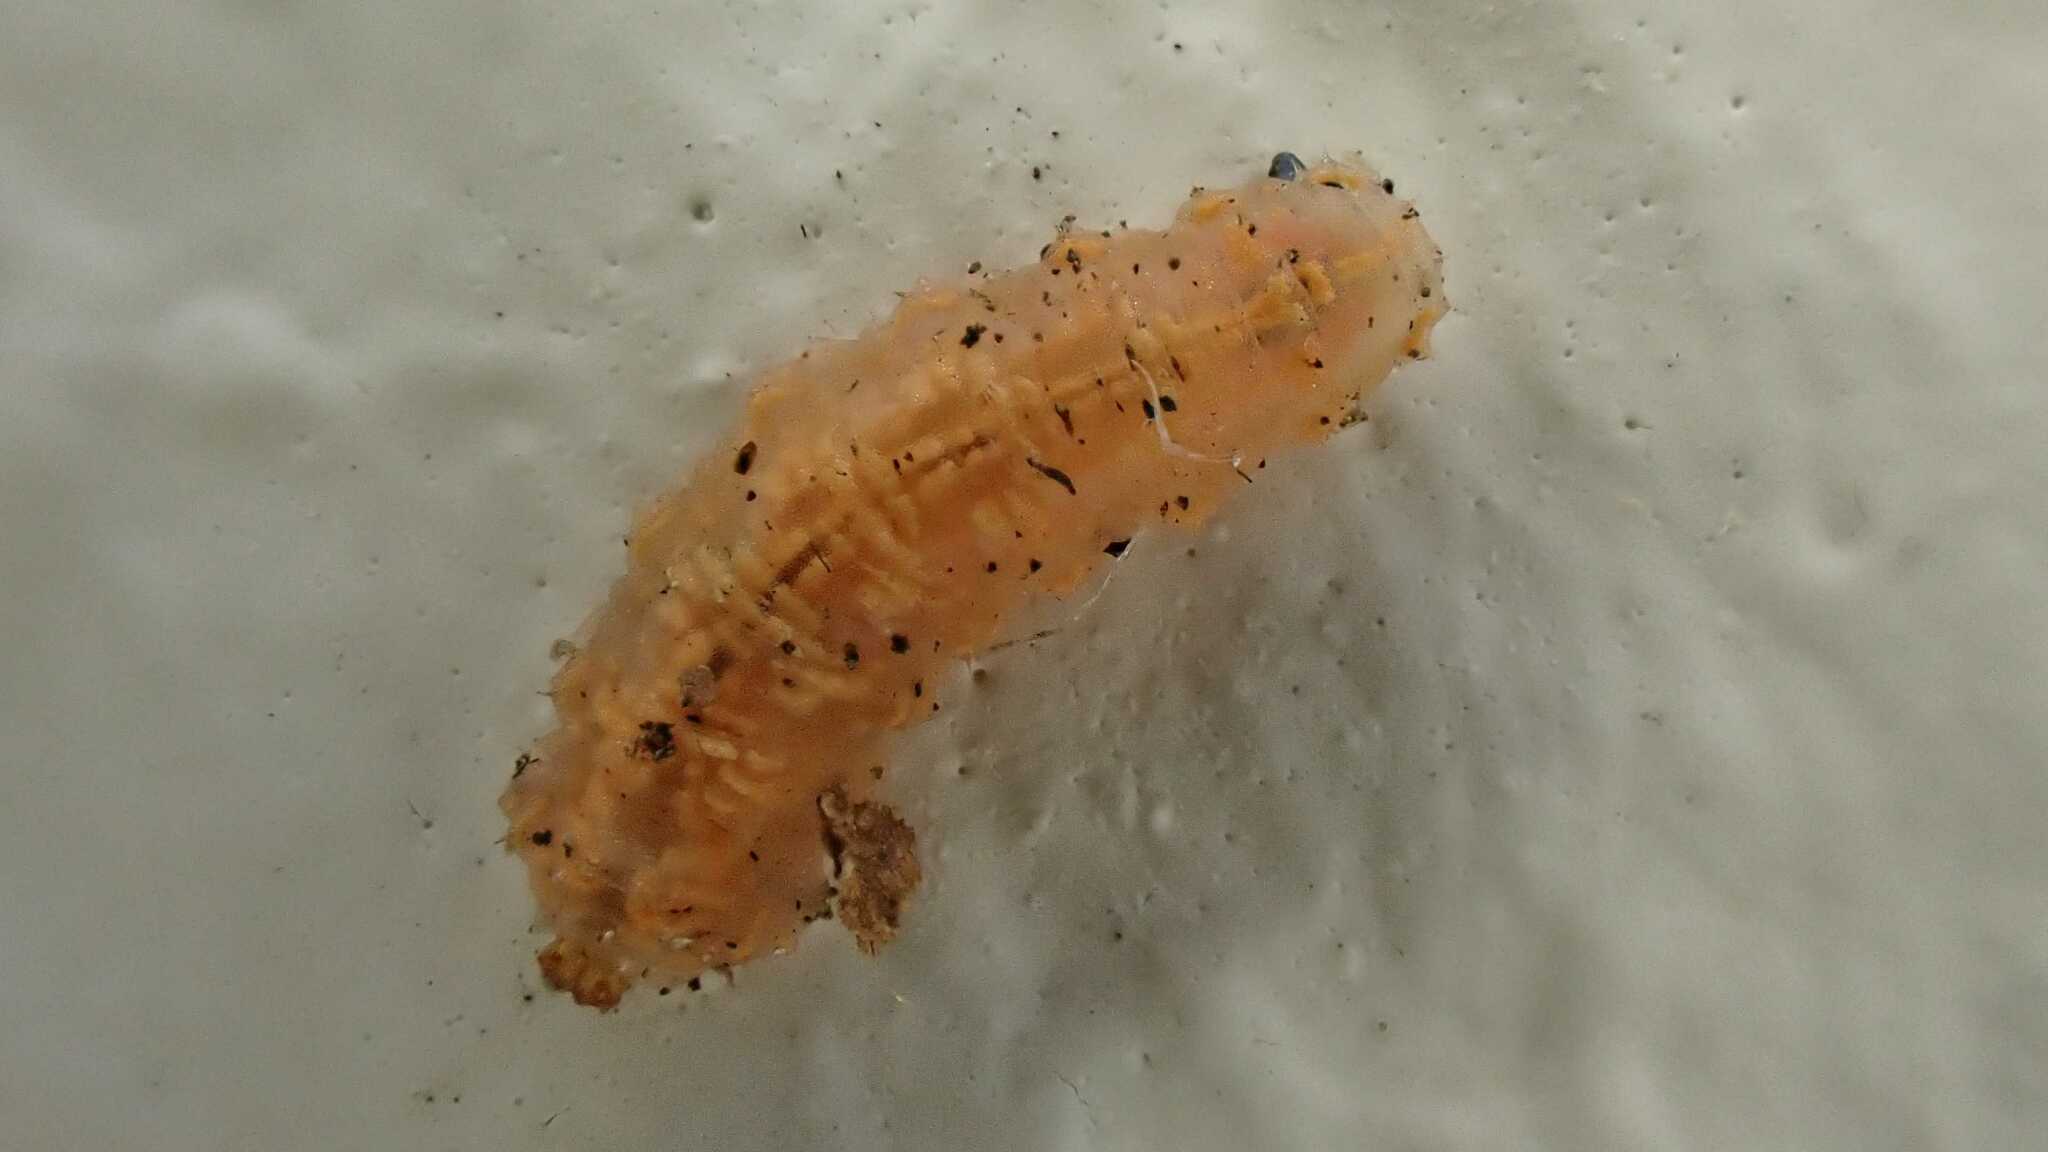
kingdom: Animalia
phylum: Arthropoda
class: Insecta
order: Diptera
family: Syrphidae
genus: Syrphus
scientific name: Syrphus
